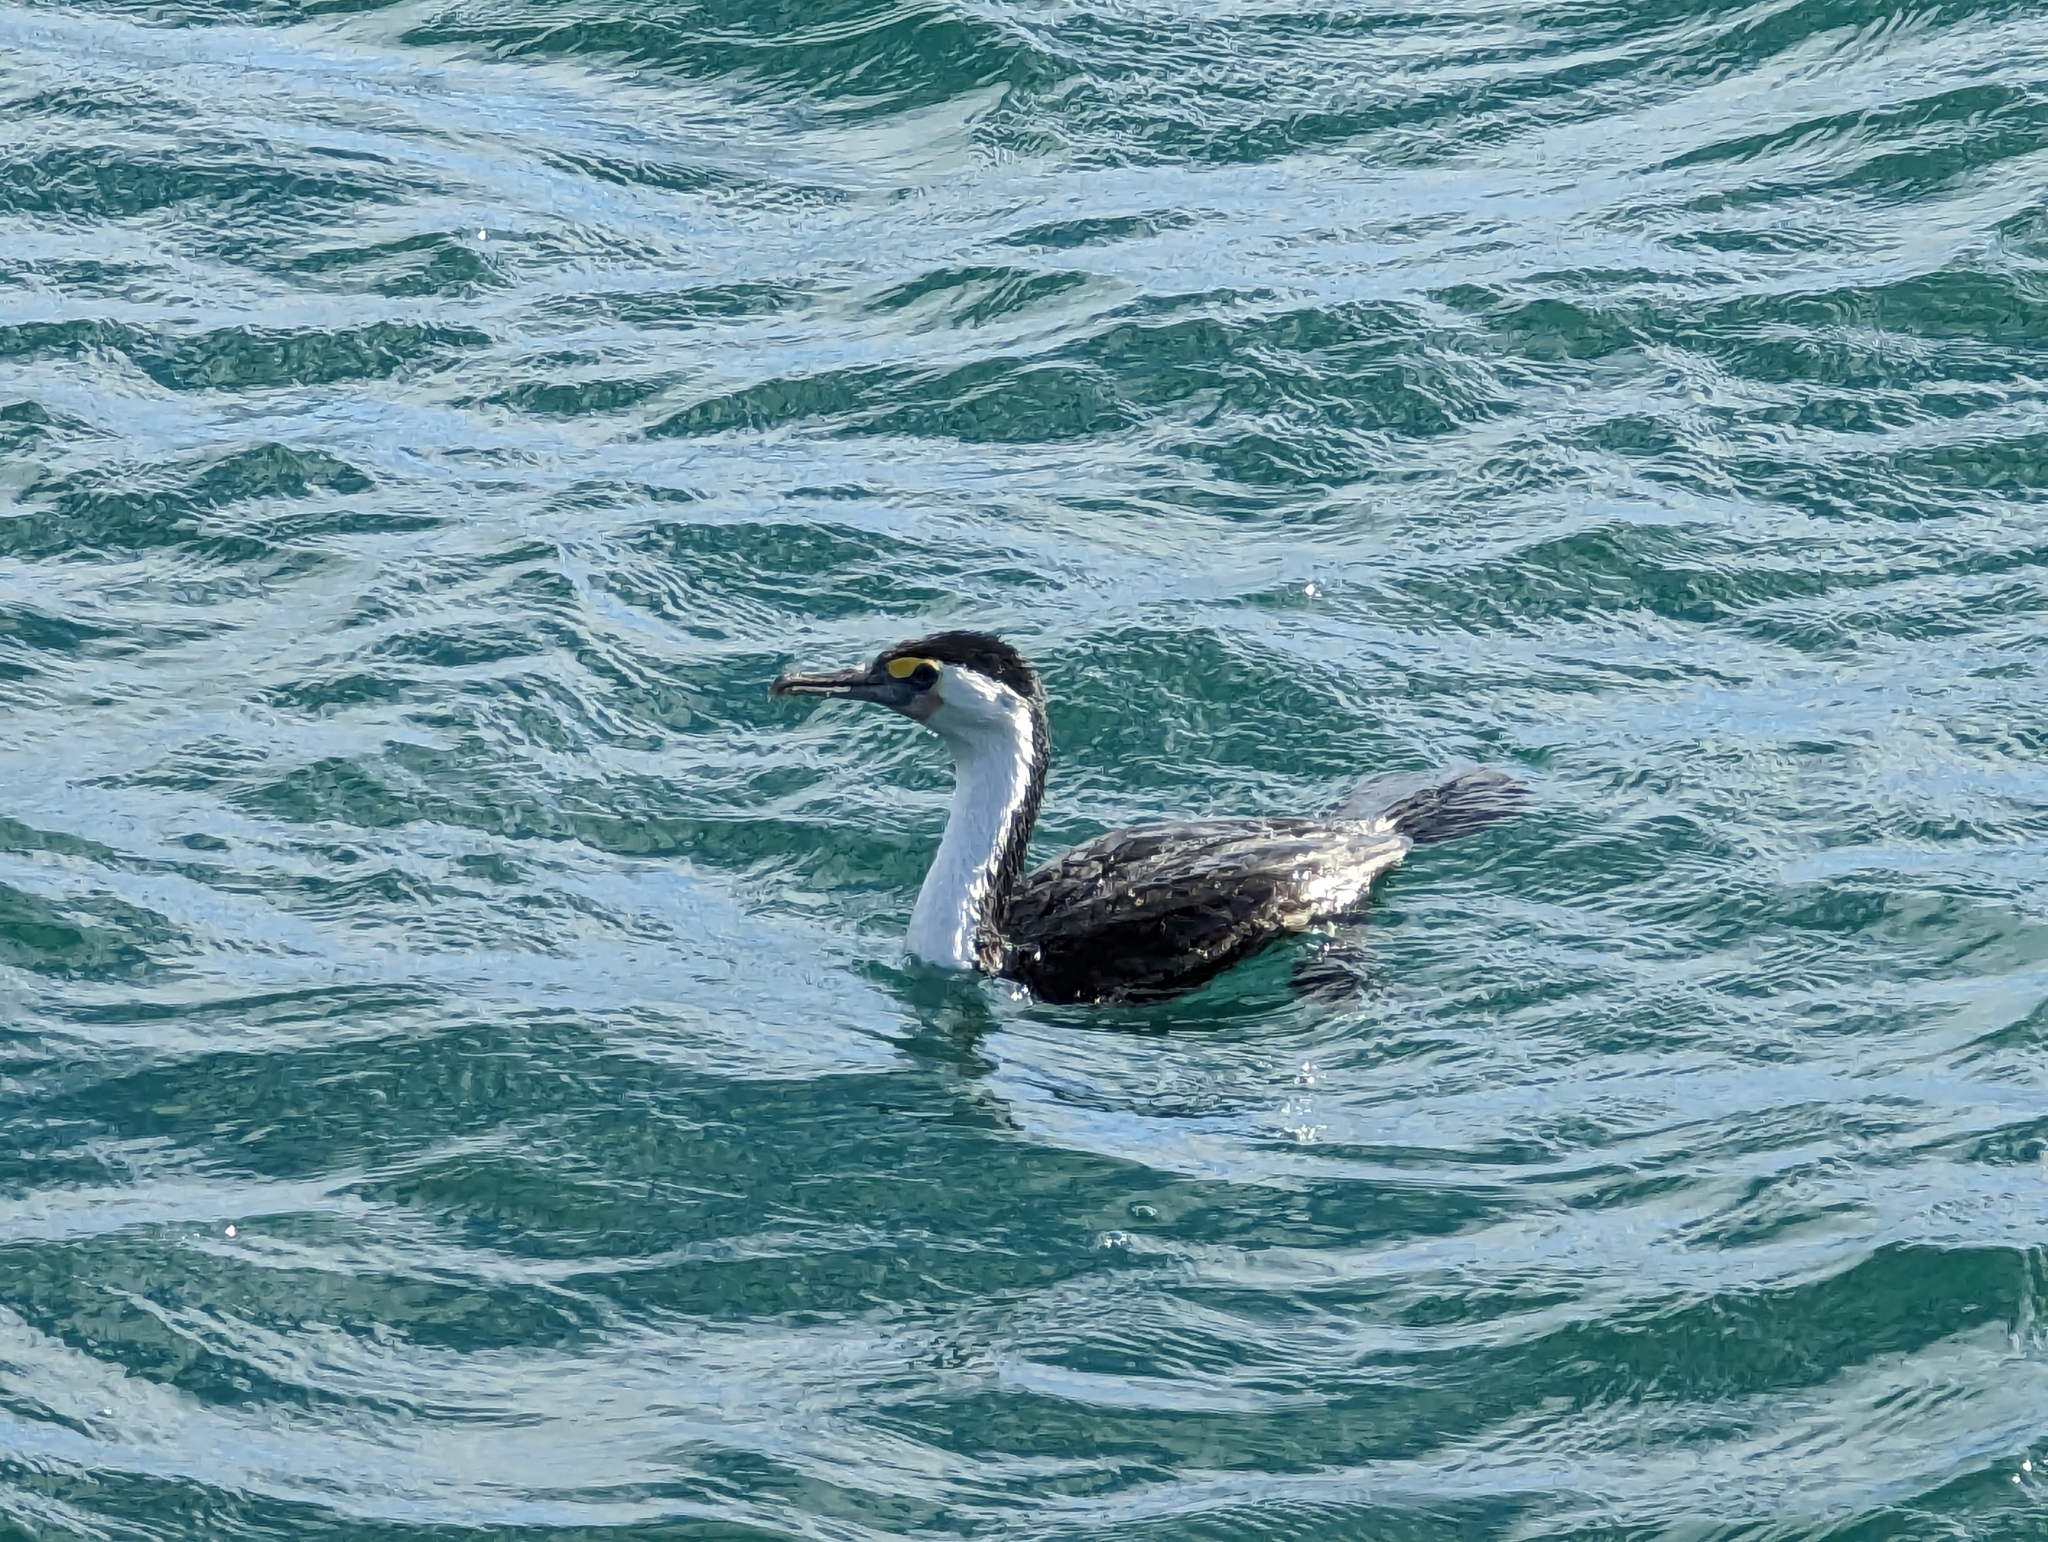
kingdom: Animalia
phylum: Chordata
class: Aves
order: Suliformes
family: Phalacrocoracidae
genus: Phalacrocorax
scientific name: Phalacrocorax varius
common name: Pied cormorant
